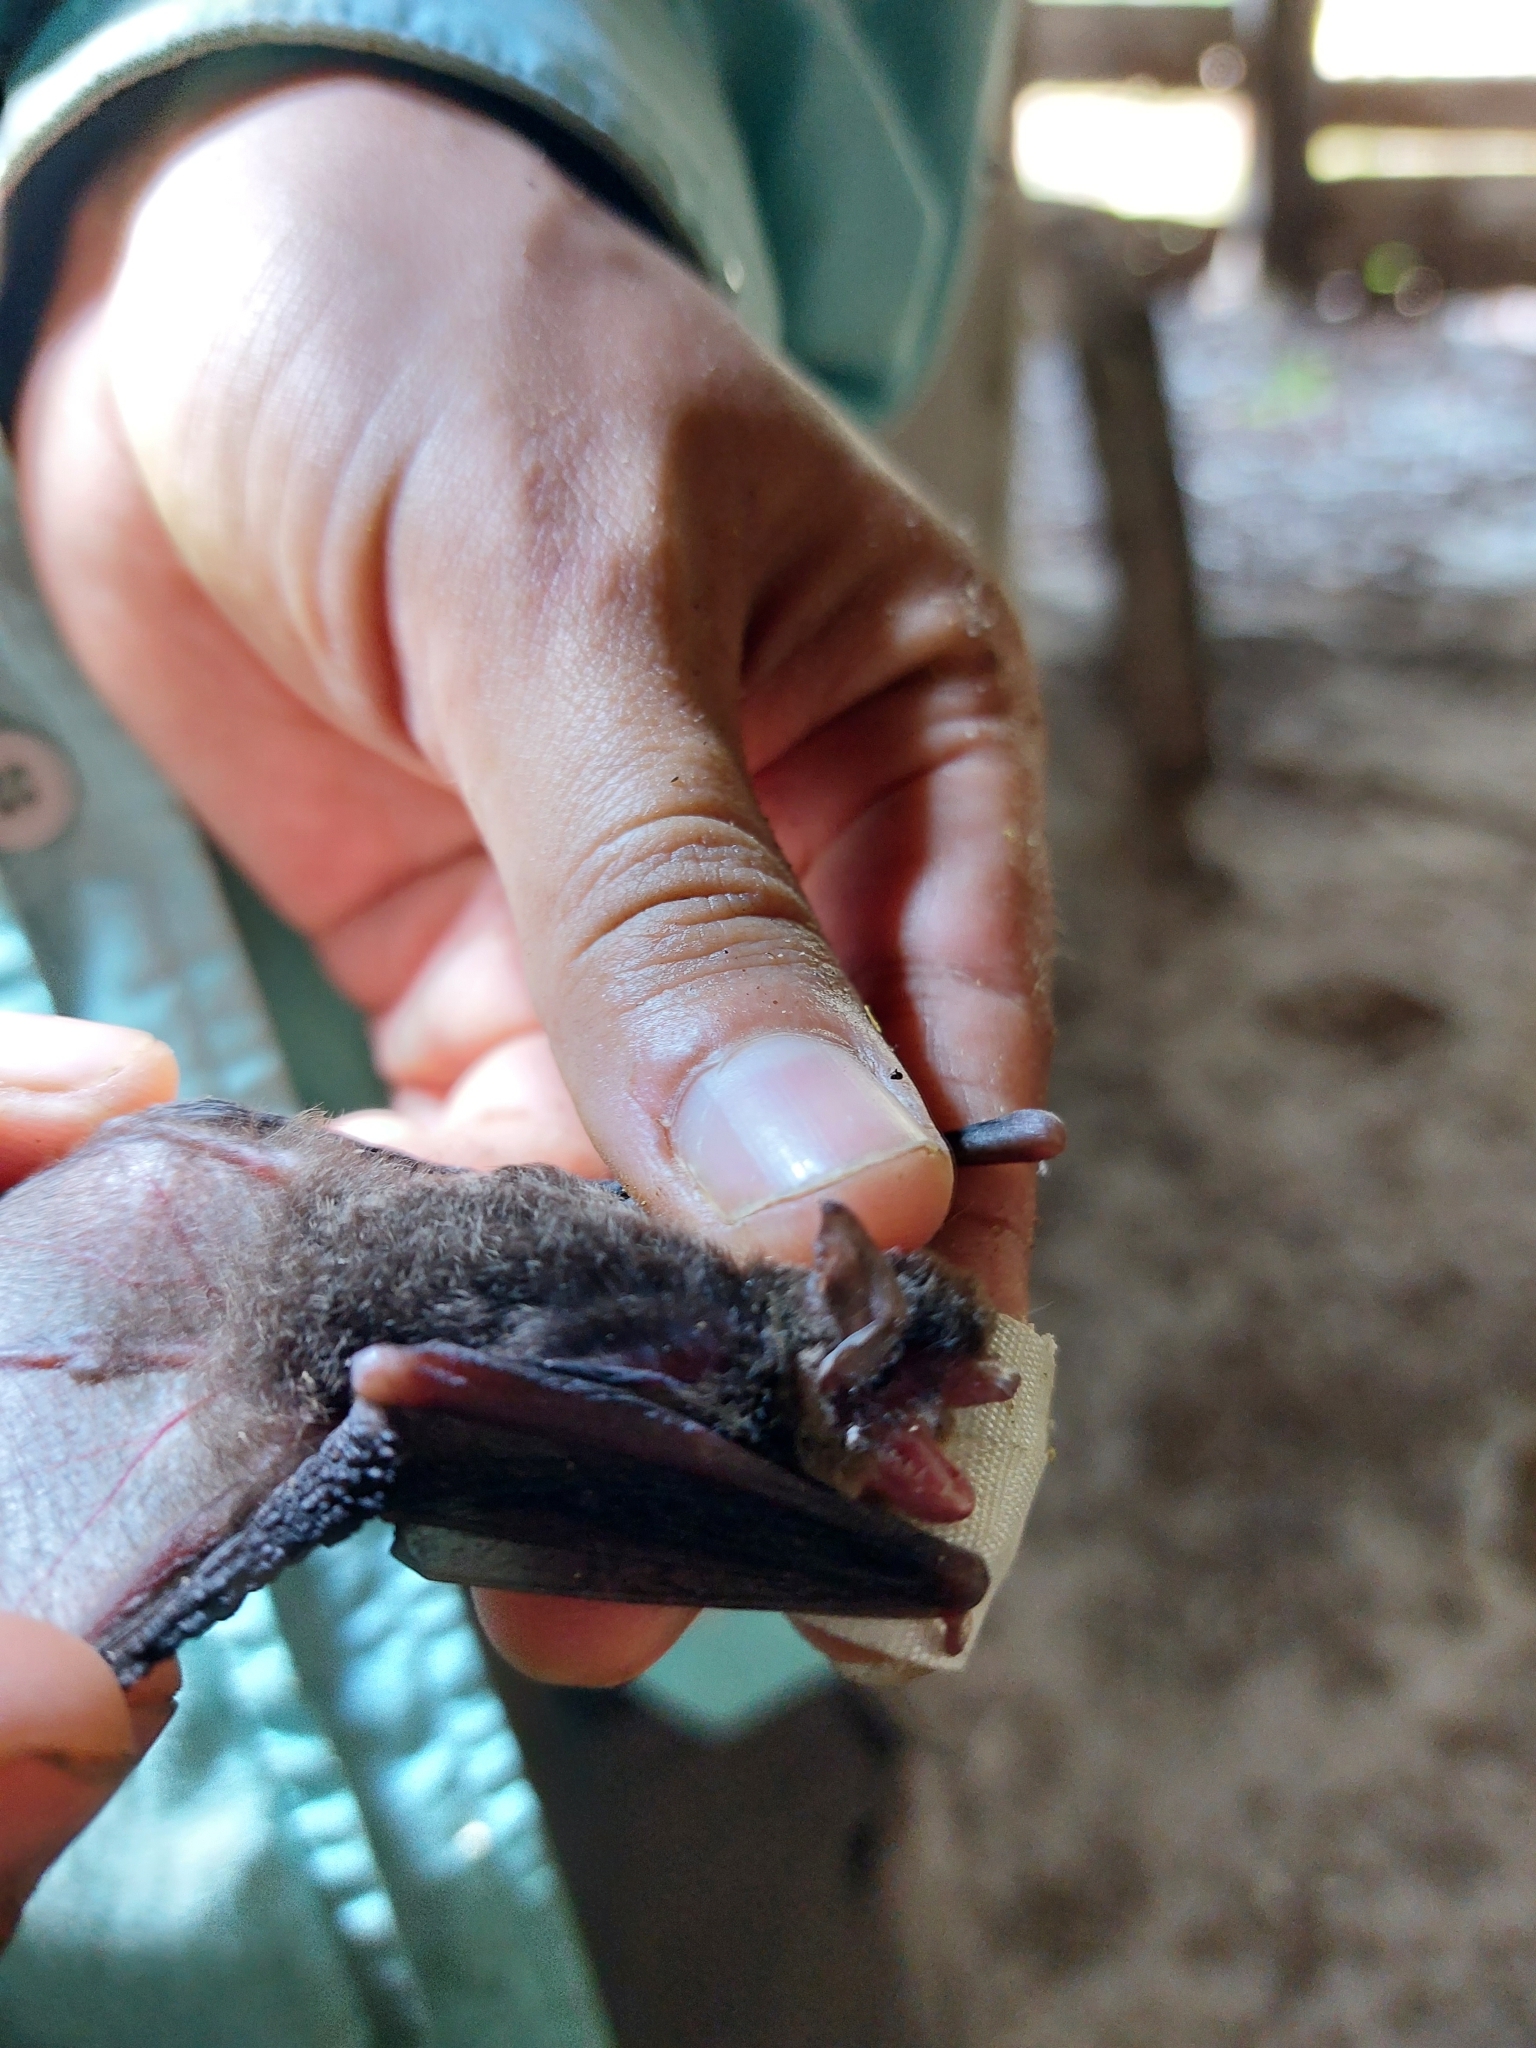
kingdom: Animalia
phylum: Chordata
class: Mammalia
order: Chiroptera
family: Vespertilionidae
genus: Myotis
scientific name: Myotis pilosatibialis
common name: Northern hairy-legged myotis
